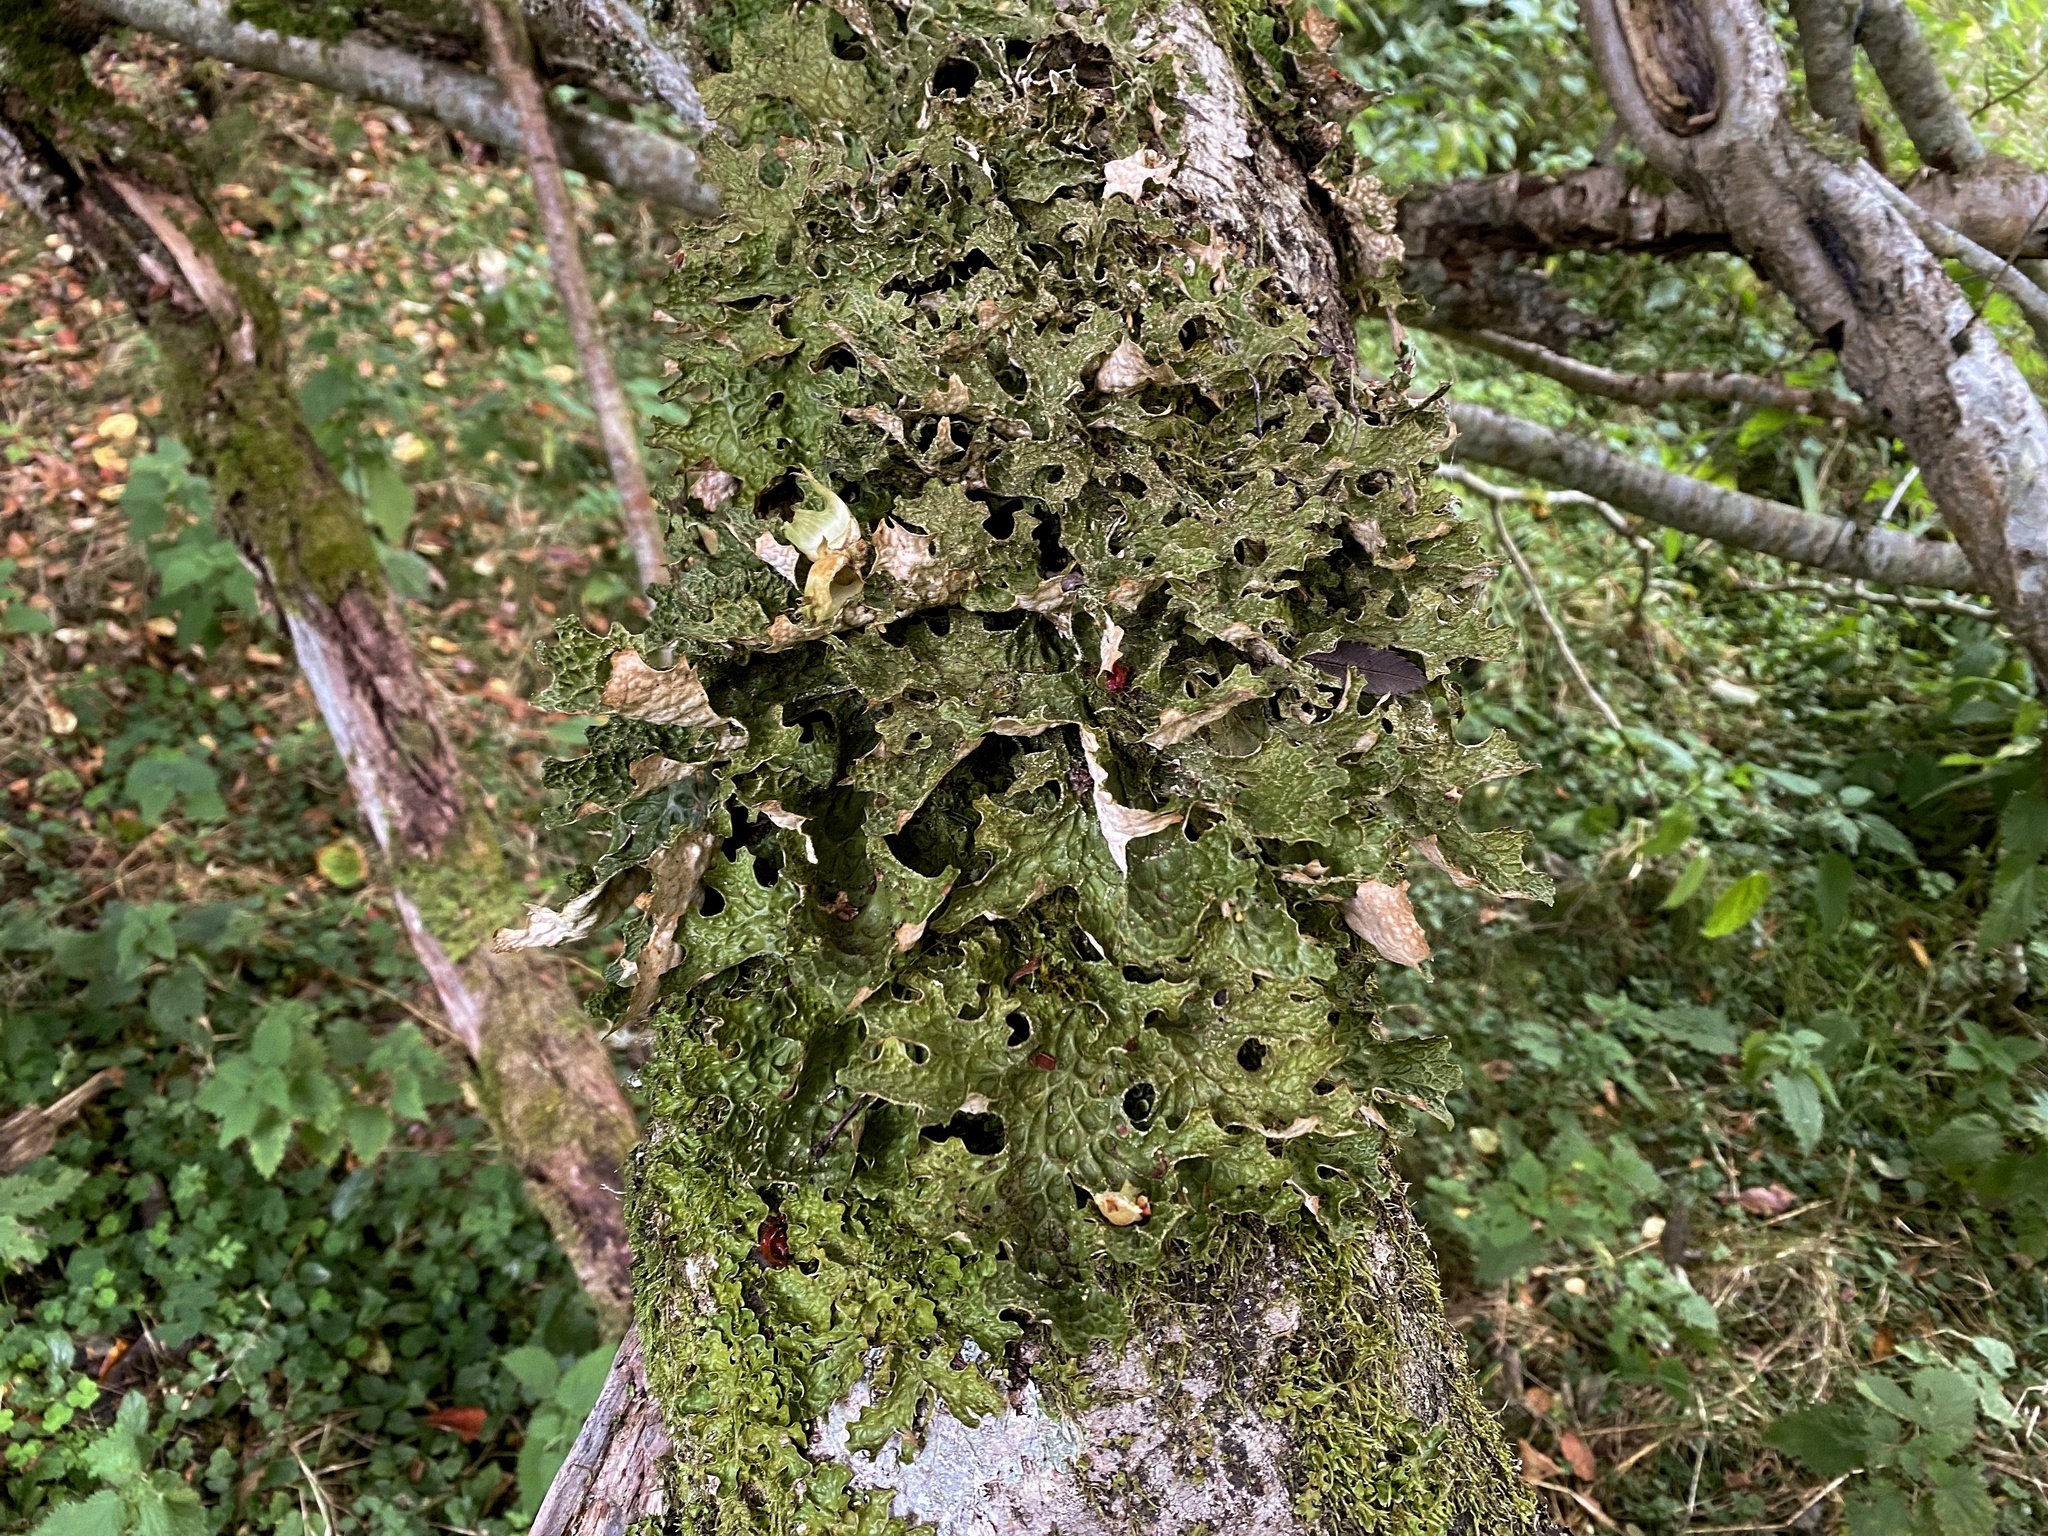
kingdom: Fungi
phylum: Ascomycota
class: Lecanoromycetes
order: Peltigerales
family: Lobariaceae
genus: Lobaria
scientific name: Lobaria pulmonaria
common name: Lungwort
